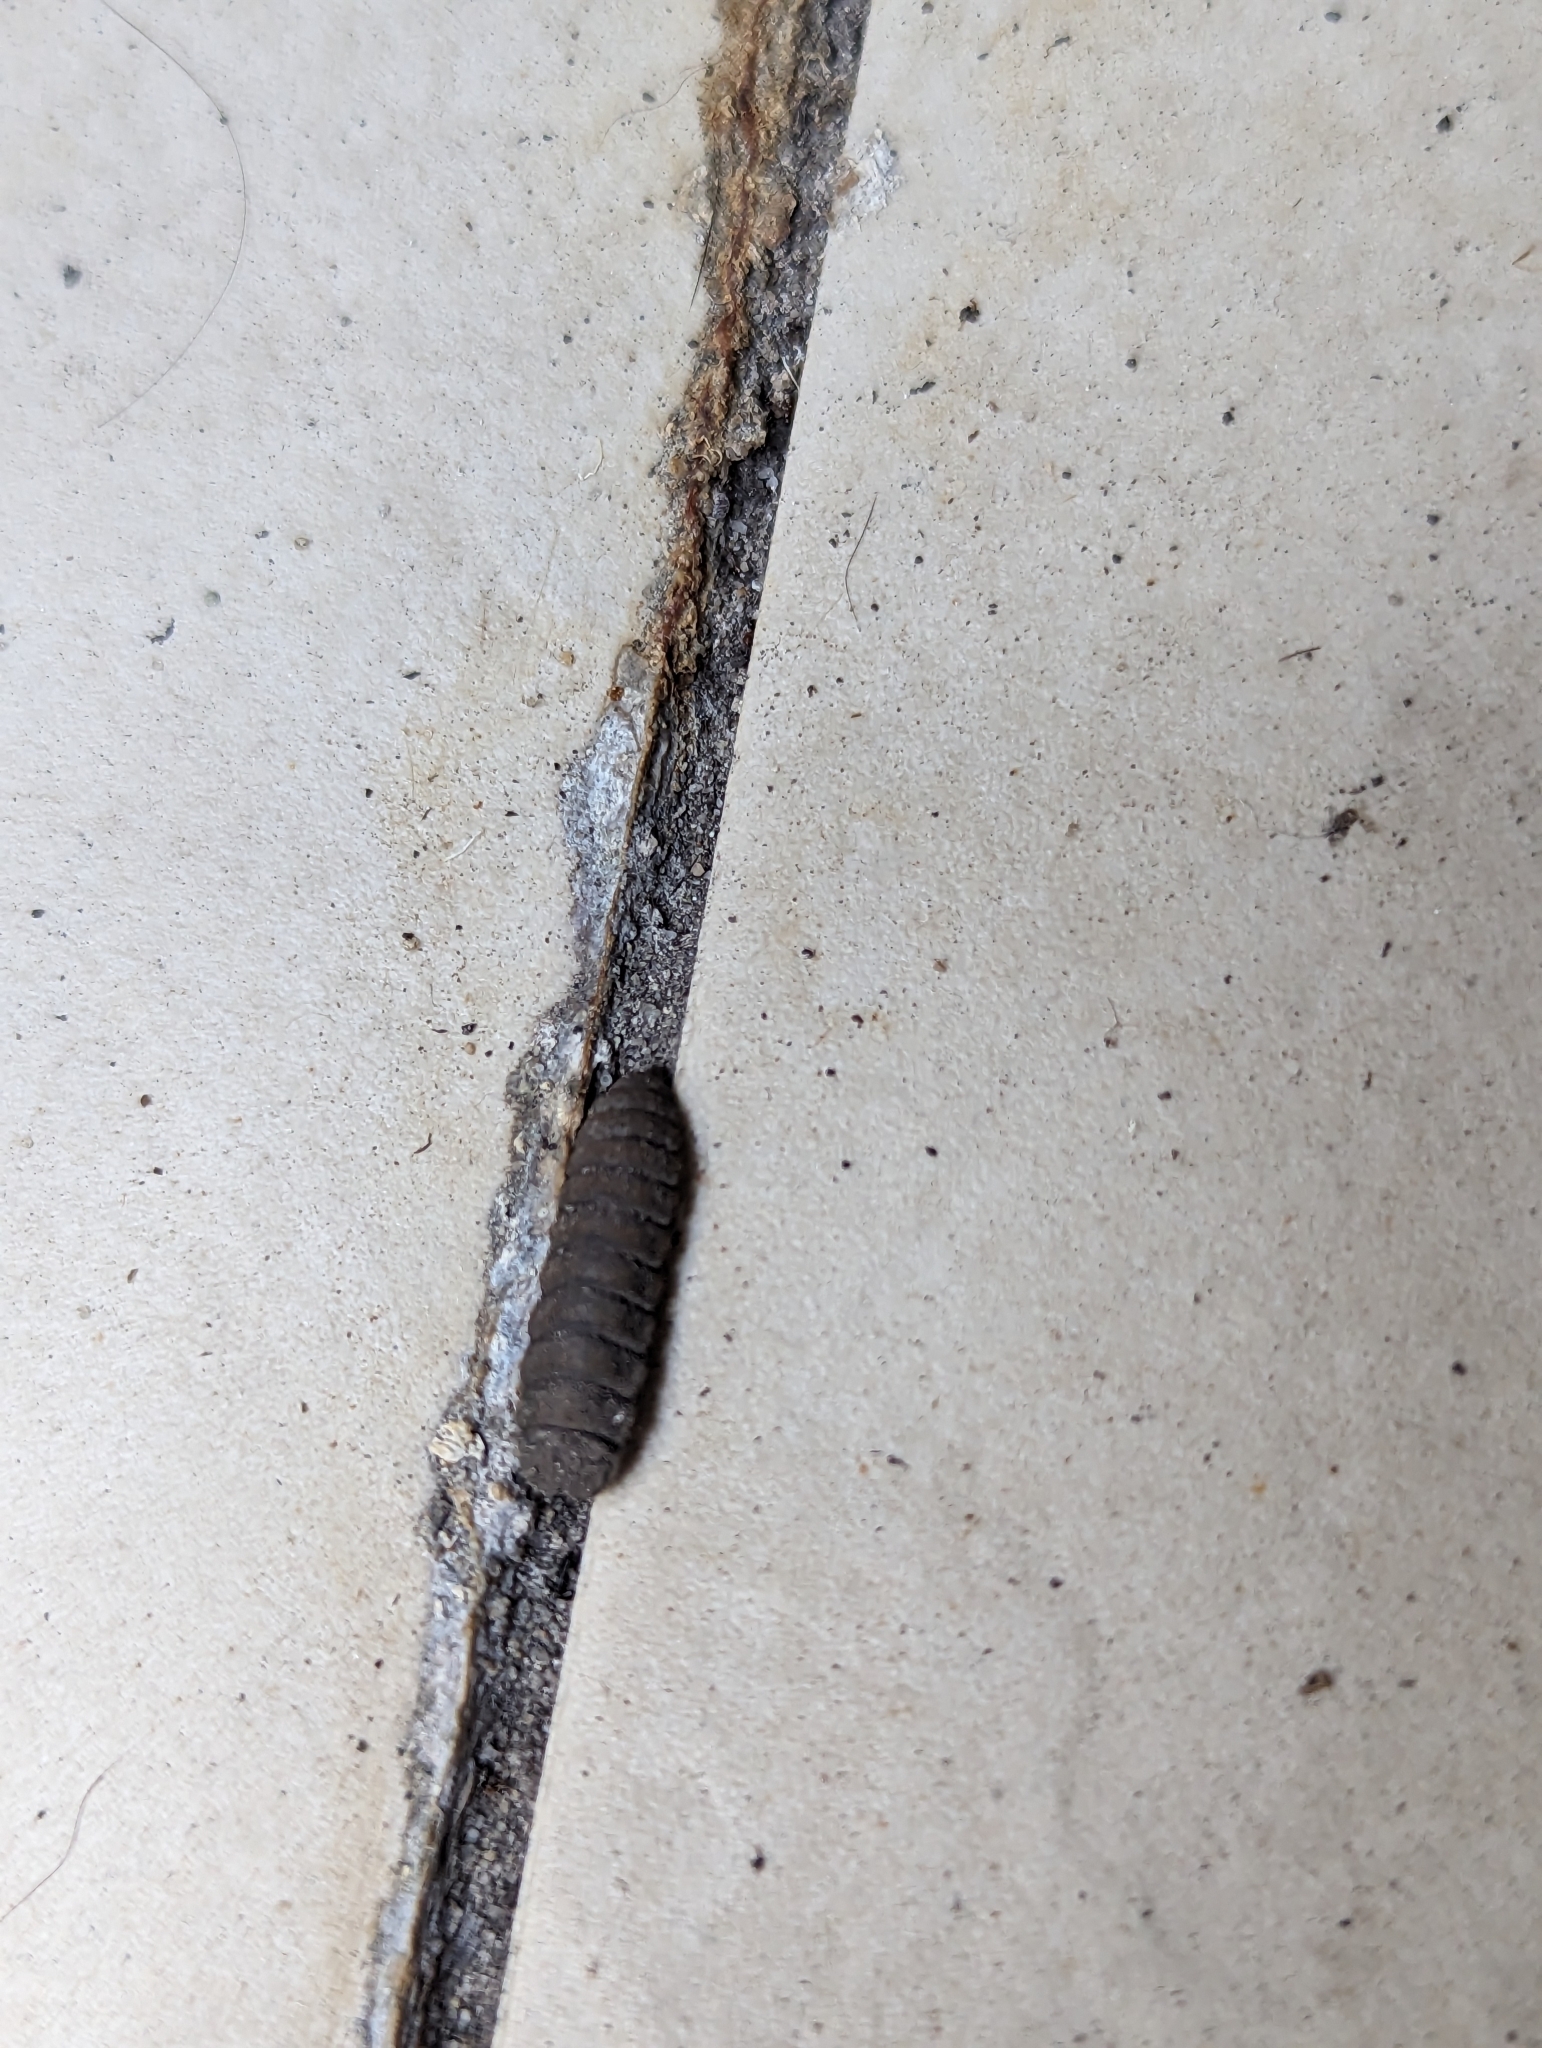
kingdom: Animalia
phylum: Arthropoda
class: Insecta
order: Diptera
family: Stratiomyidae
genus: Hermetia
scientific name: Hermetia illucens
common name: Black soldier fly
